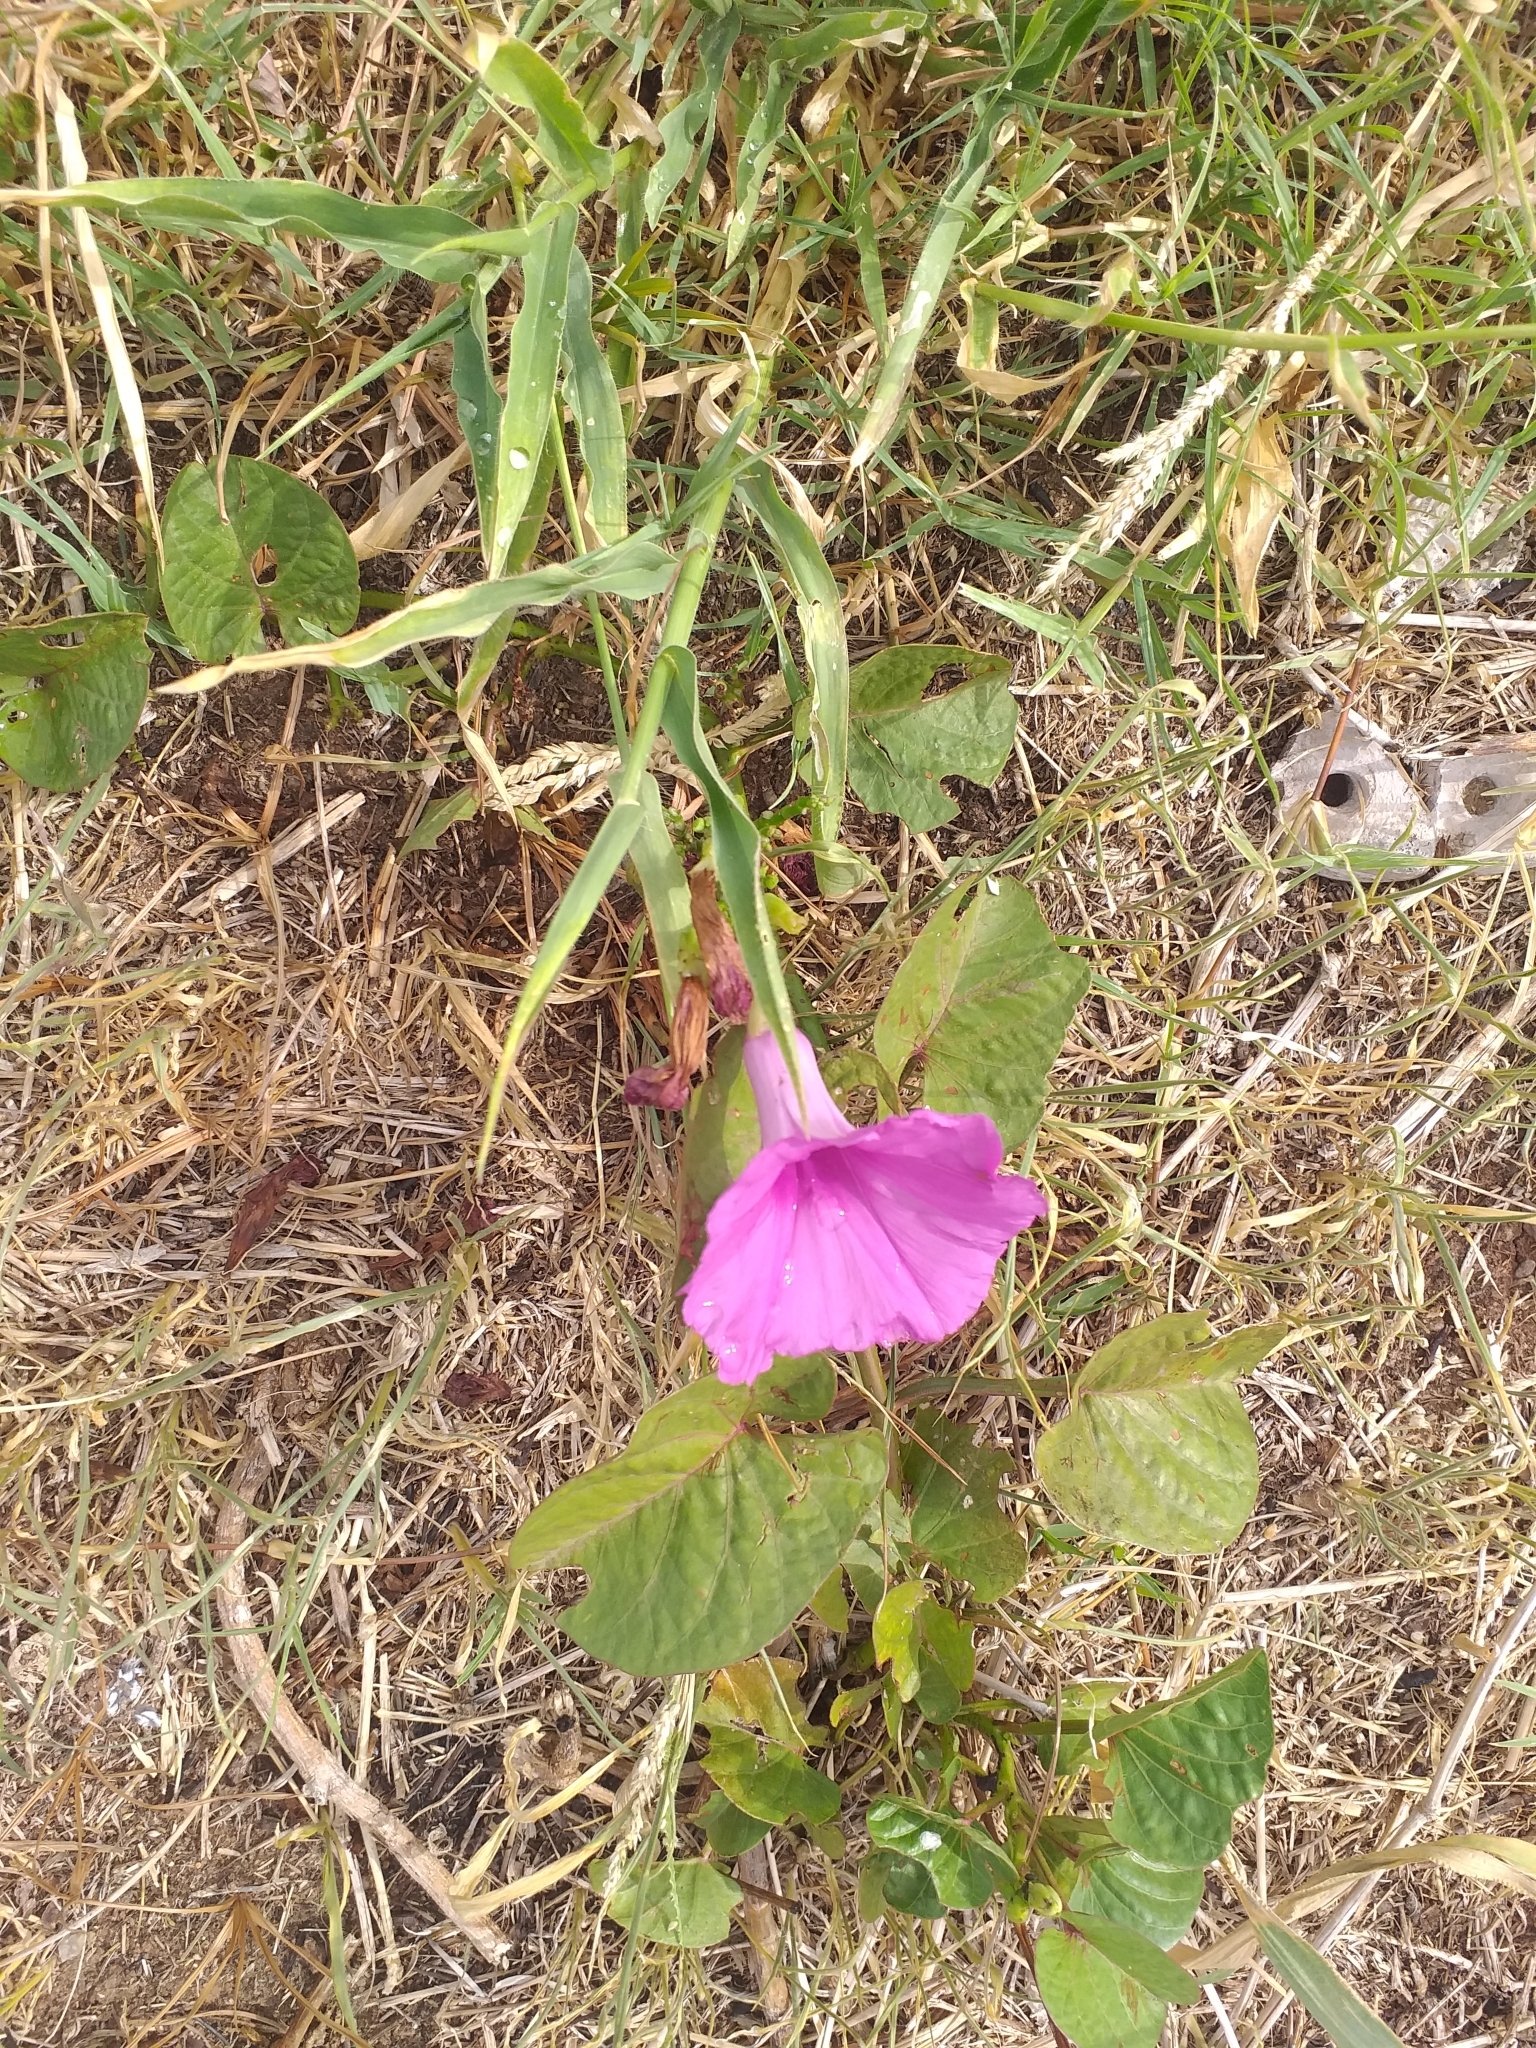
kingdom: Plantae
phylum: Tracheophyta
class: Magnoliopsida
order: Solanales
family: Convolvulaceae
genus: Ipomoea
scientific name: Ipomoea asarifolia
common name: Ginger-leaf morning-glory
